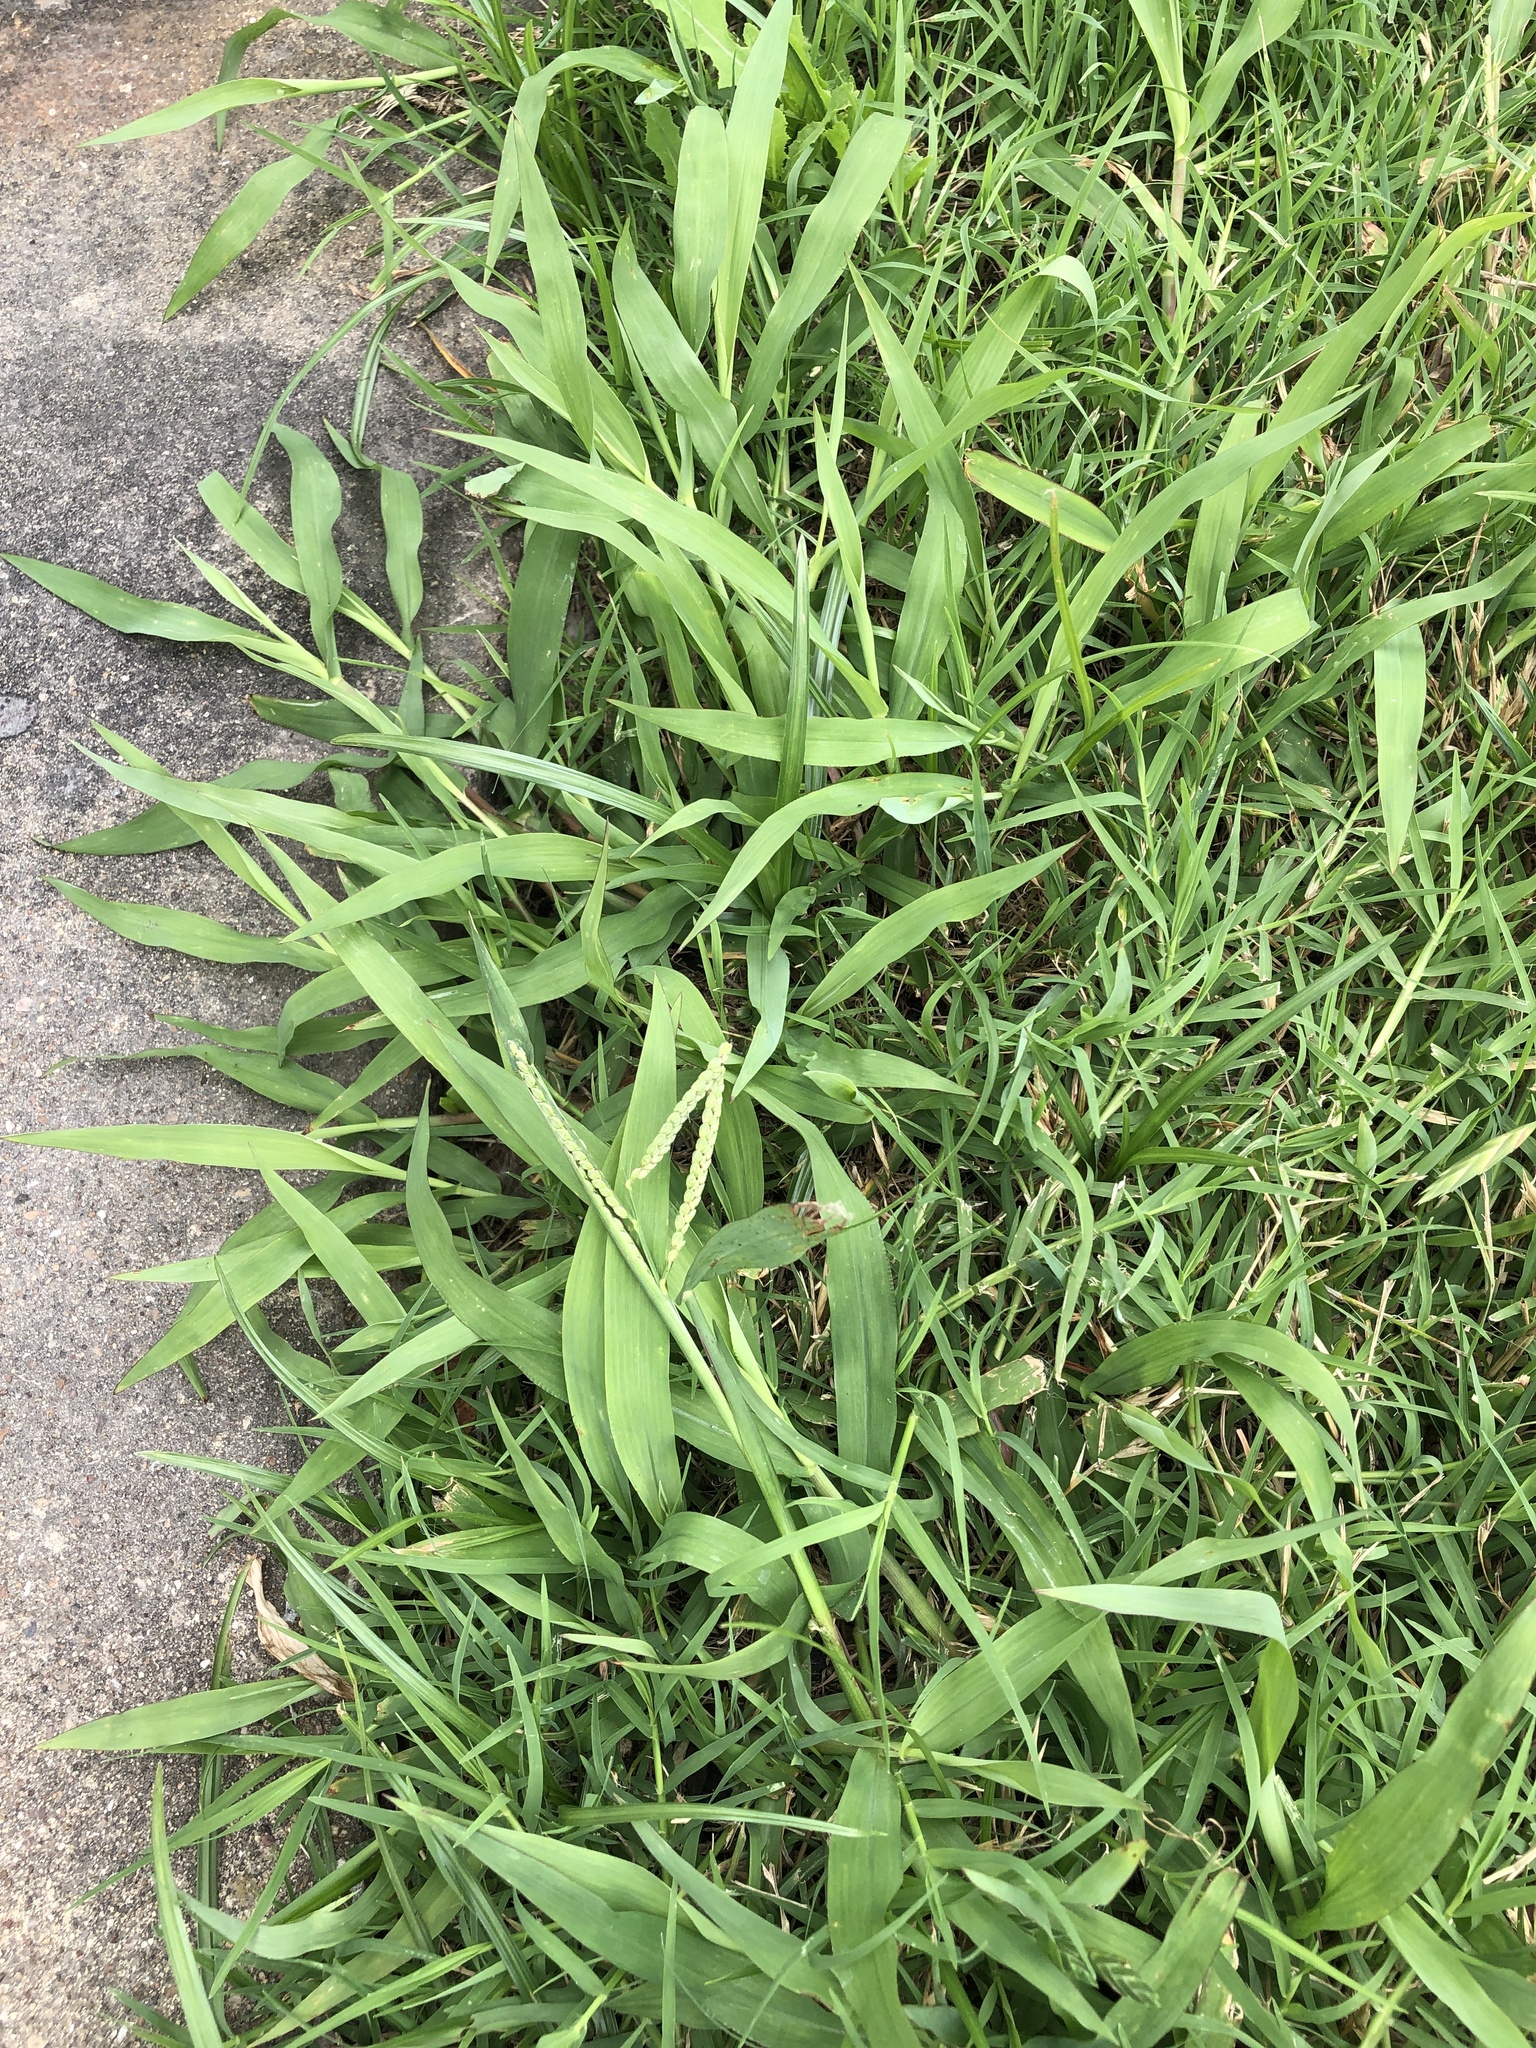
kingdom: Plantae
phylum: Tracheophyta
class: Liliopsida
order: Poales
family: Poaceae
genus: Paspalum
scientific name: Paspalum dilatatum
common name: Dallisgrass
